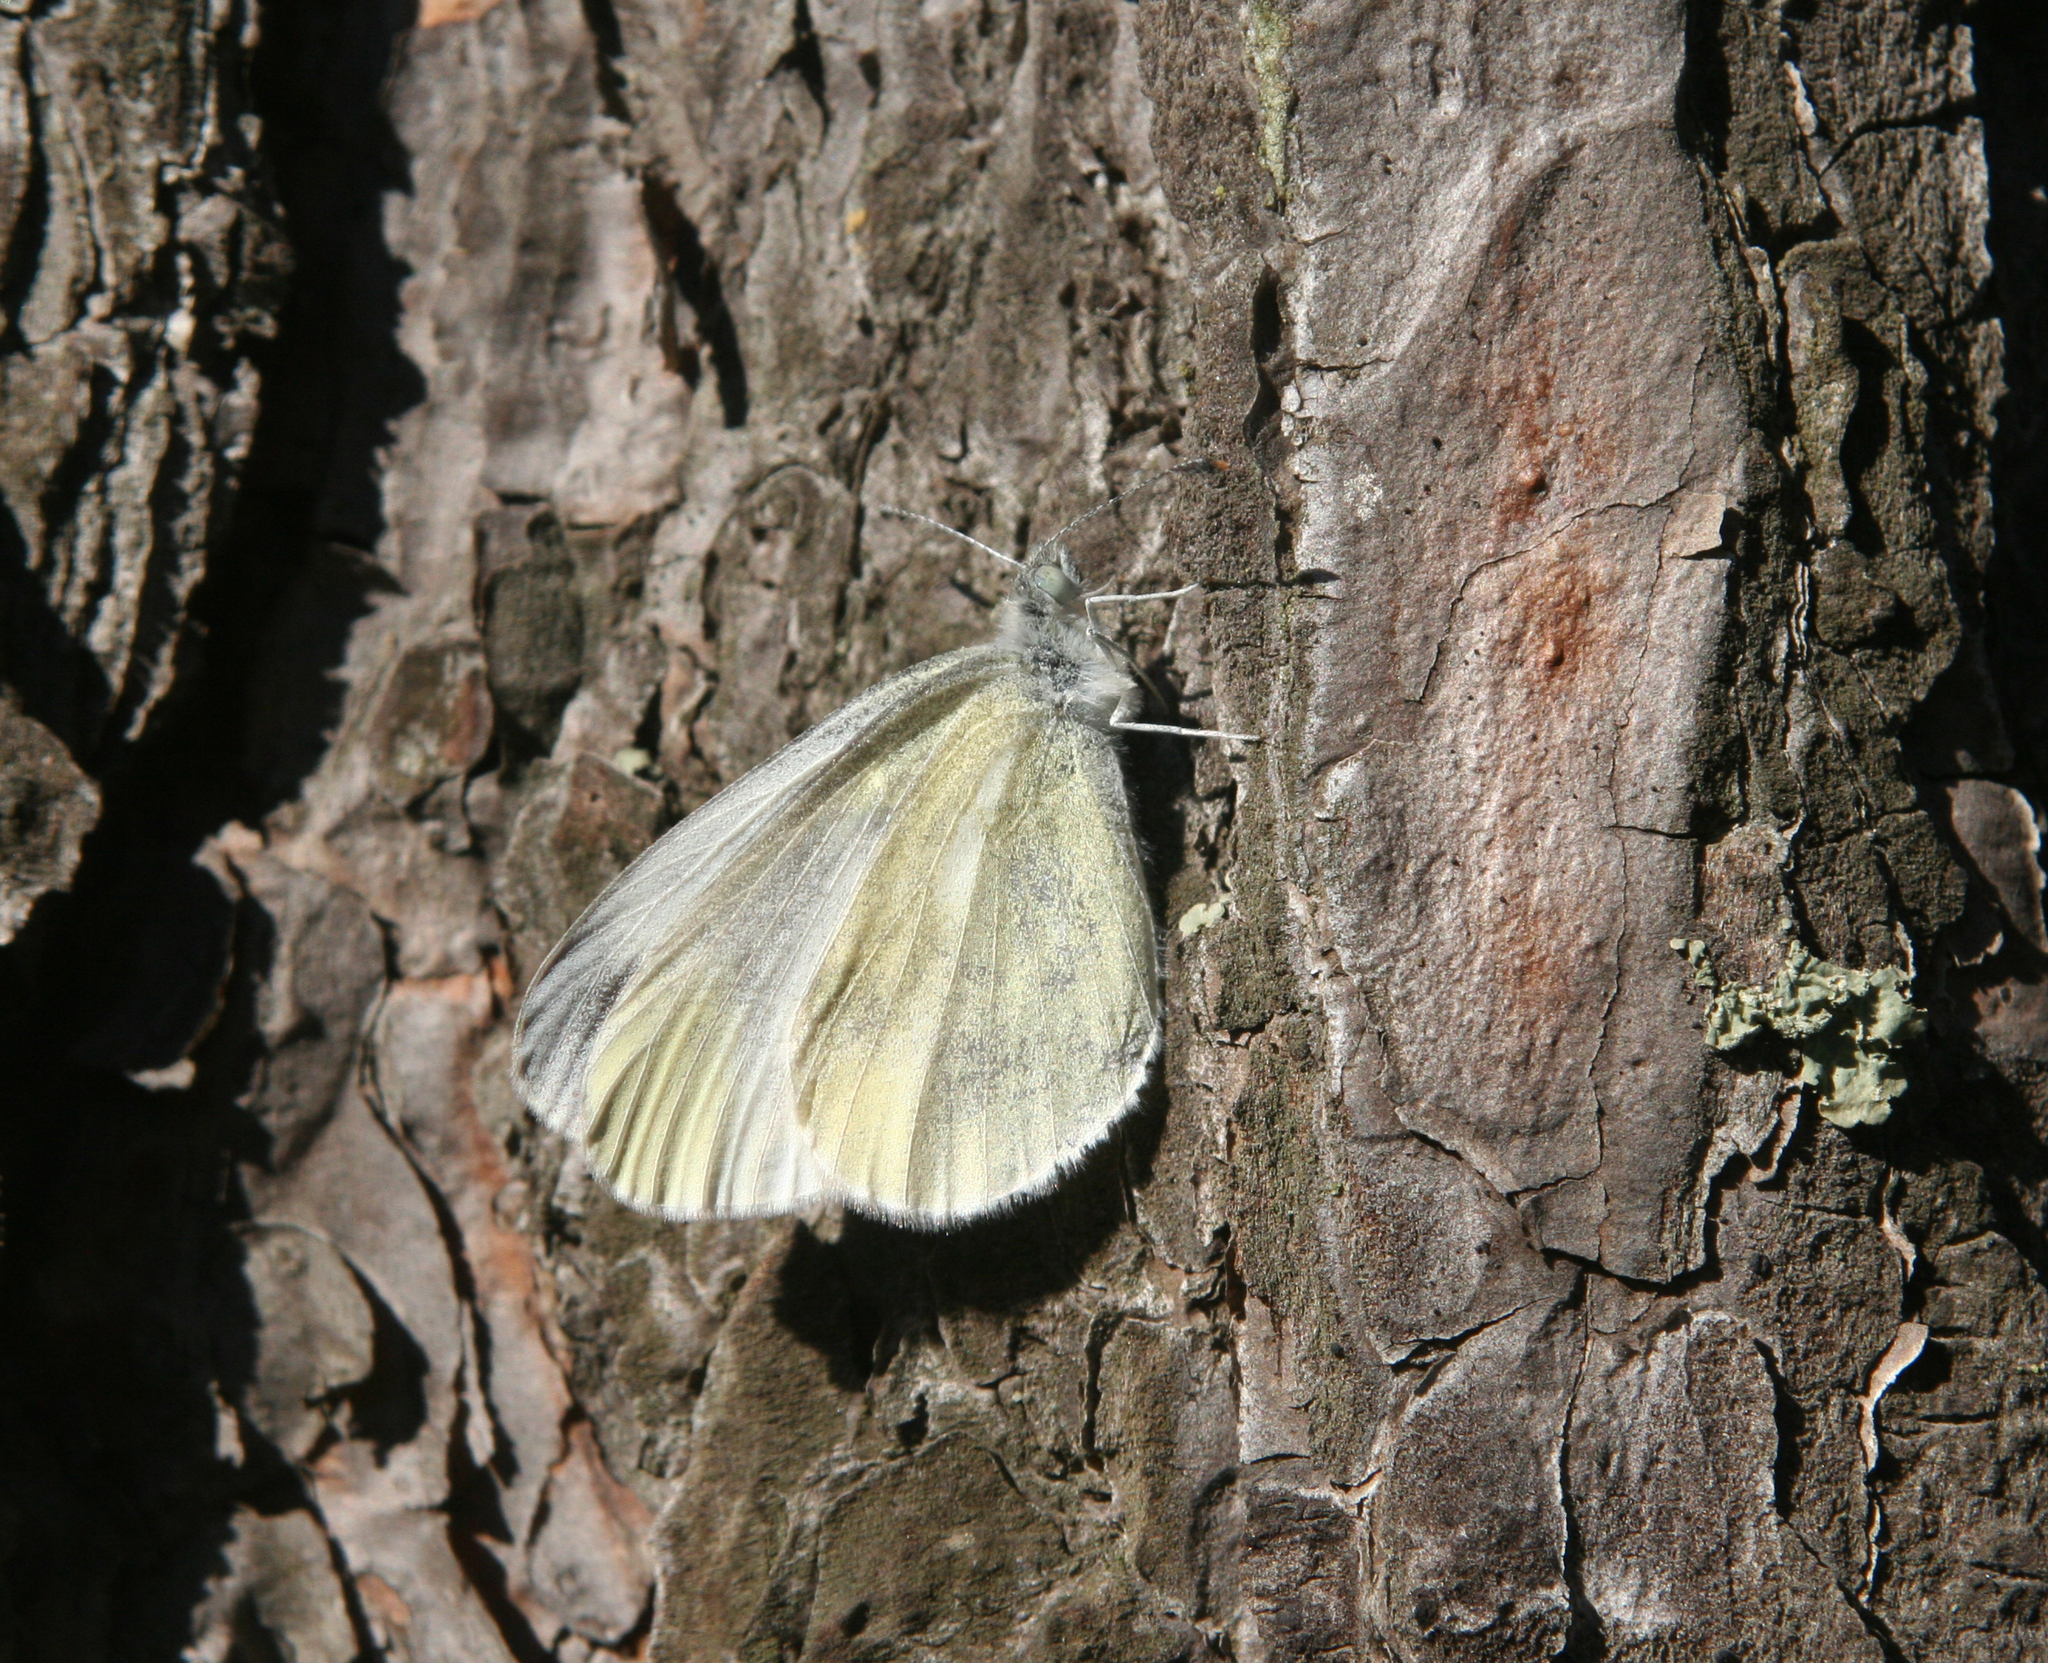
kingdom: Animalia
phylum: Arthropoda
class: Insecta
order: Lepidoptera
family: Pieridae
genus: Leptidea
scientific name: Leptidea sinapis
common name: Wood white
